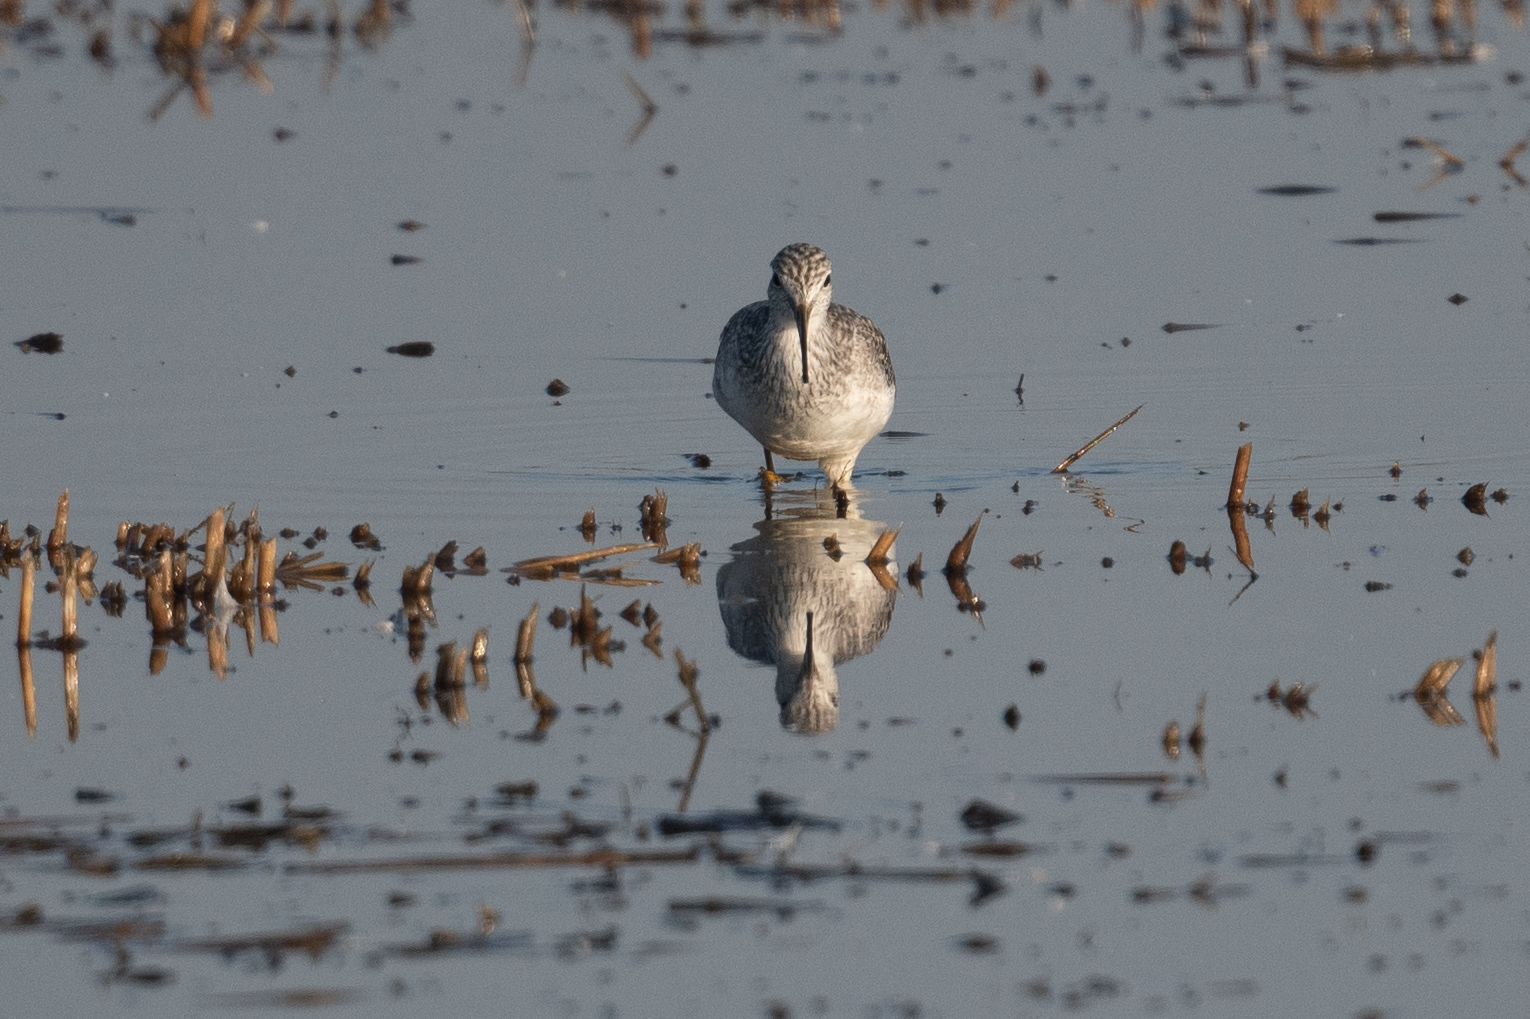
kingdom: Animalia
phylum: Chordata
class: Aves
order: Charadriiformes
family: Scolopacidae
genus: Tringa
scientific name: Tringa melanoleuca
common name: Greater yellowlegs
